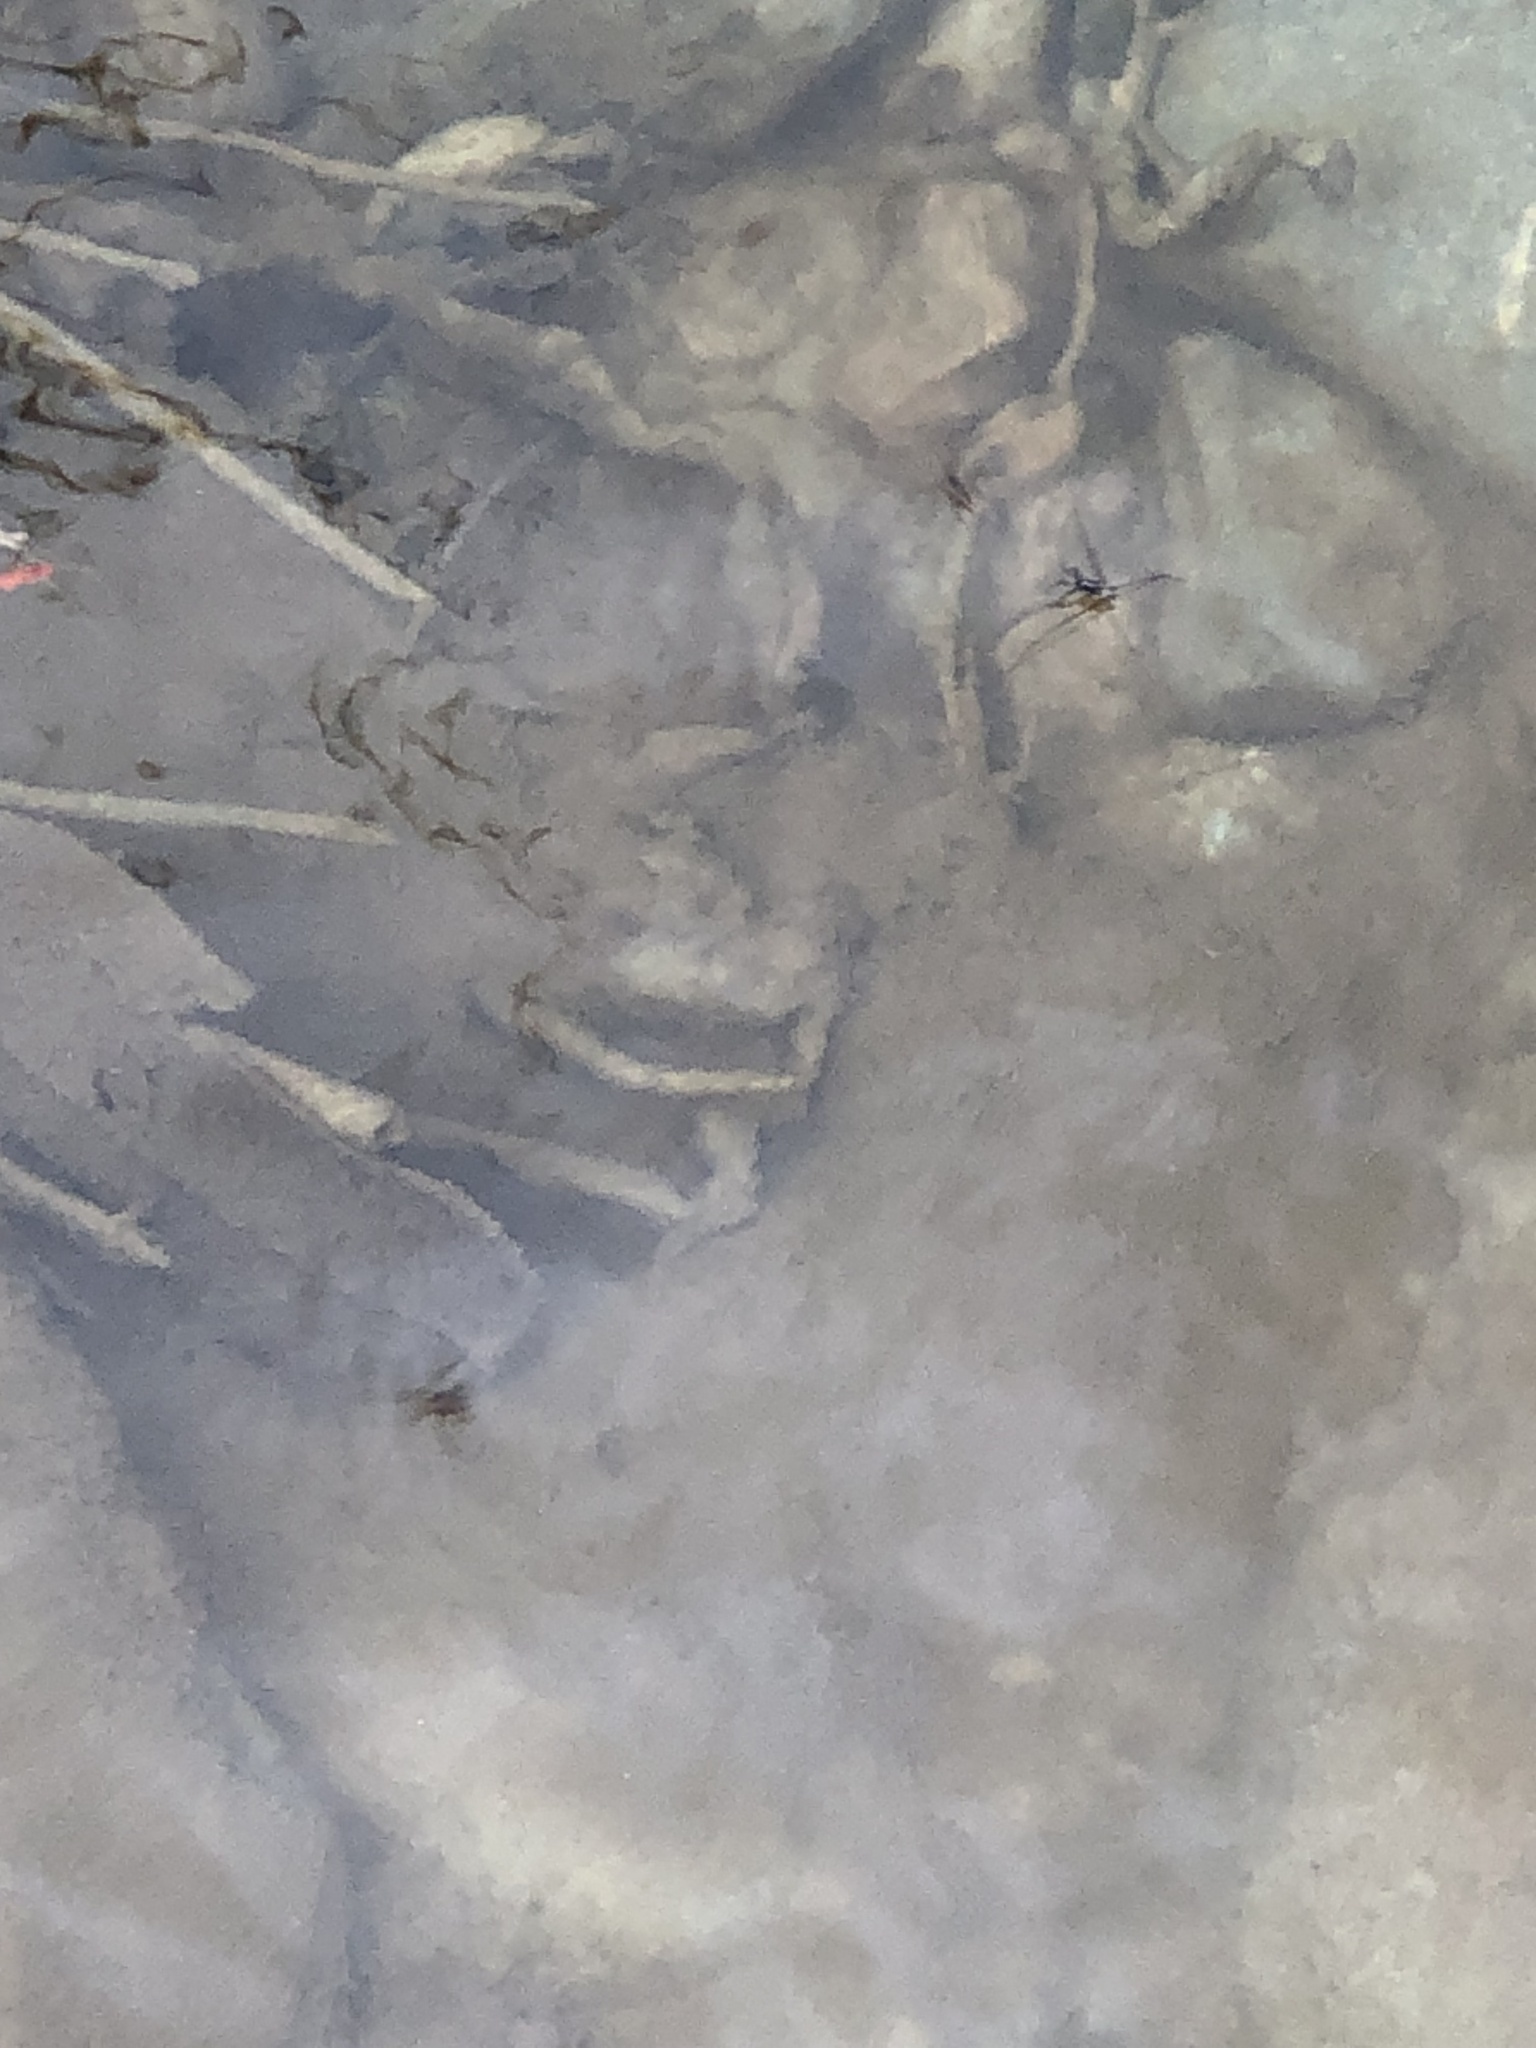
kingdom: Animalia
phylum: Arthropoda
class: Insecta
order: Hemiptera
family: Veliidae
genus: Rhagovelia
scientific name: Rhagovelia obesa
